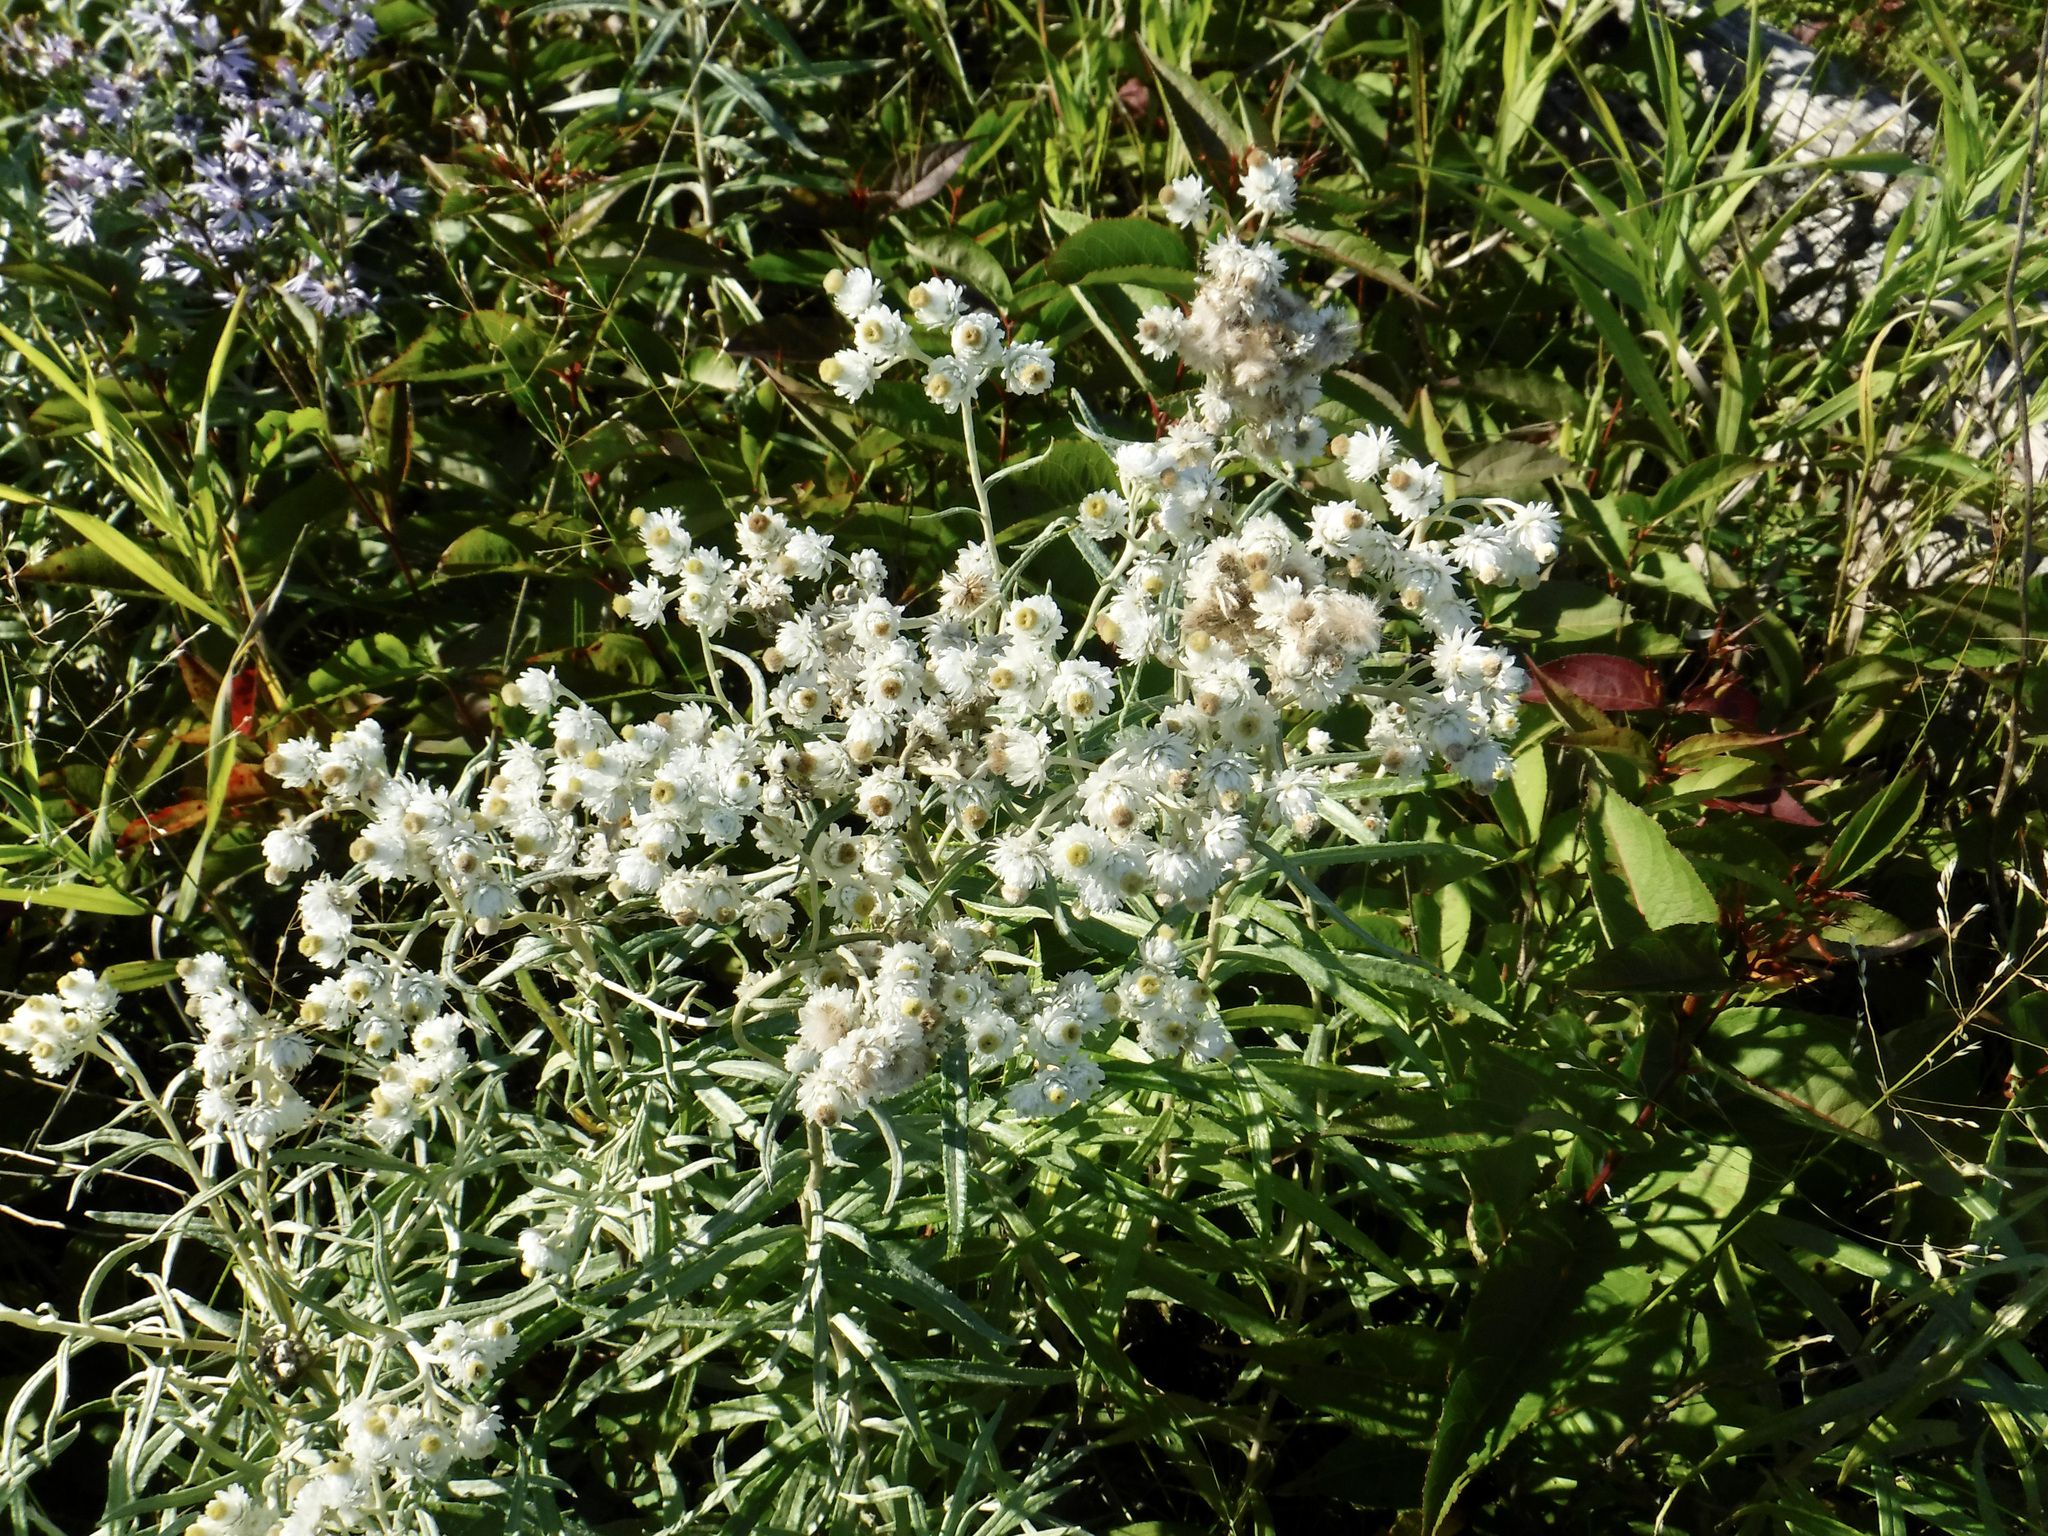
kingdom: Plantae
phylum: Tracheophyta
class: Magnoliopsida
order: Asterales
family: Asteraceae
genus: Anaphalis
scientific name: Anaphalis margaritacea
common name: Pearly everlasting
